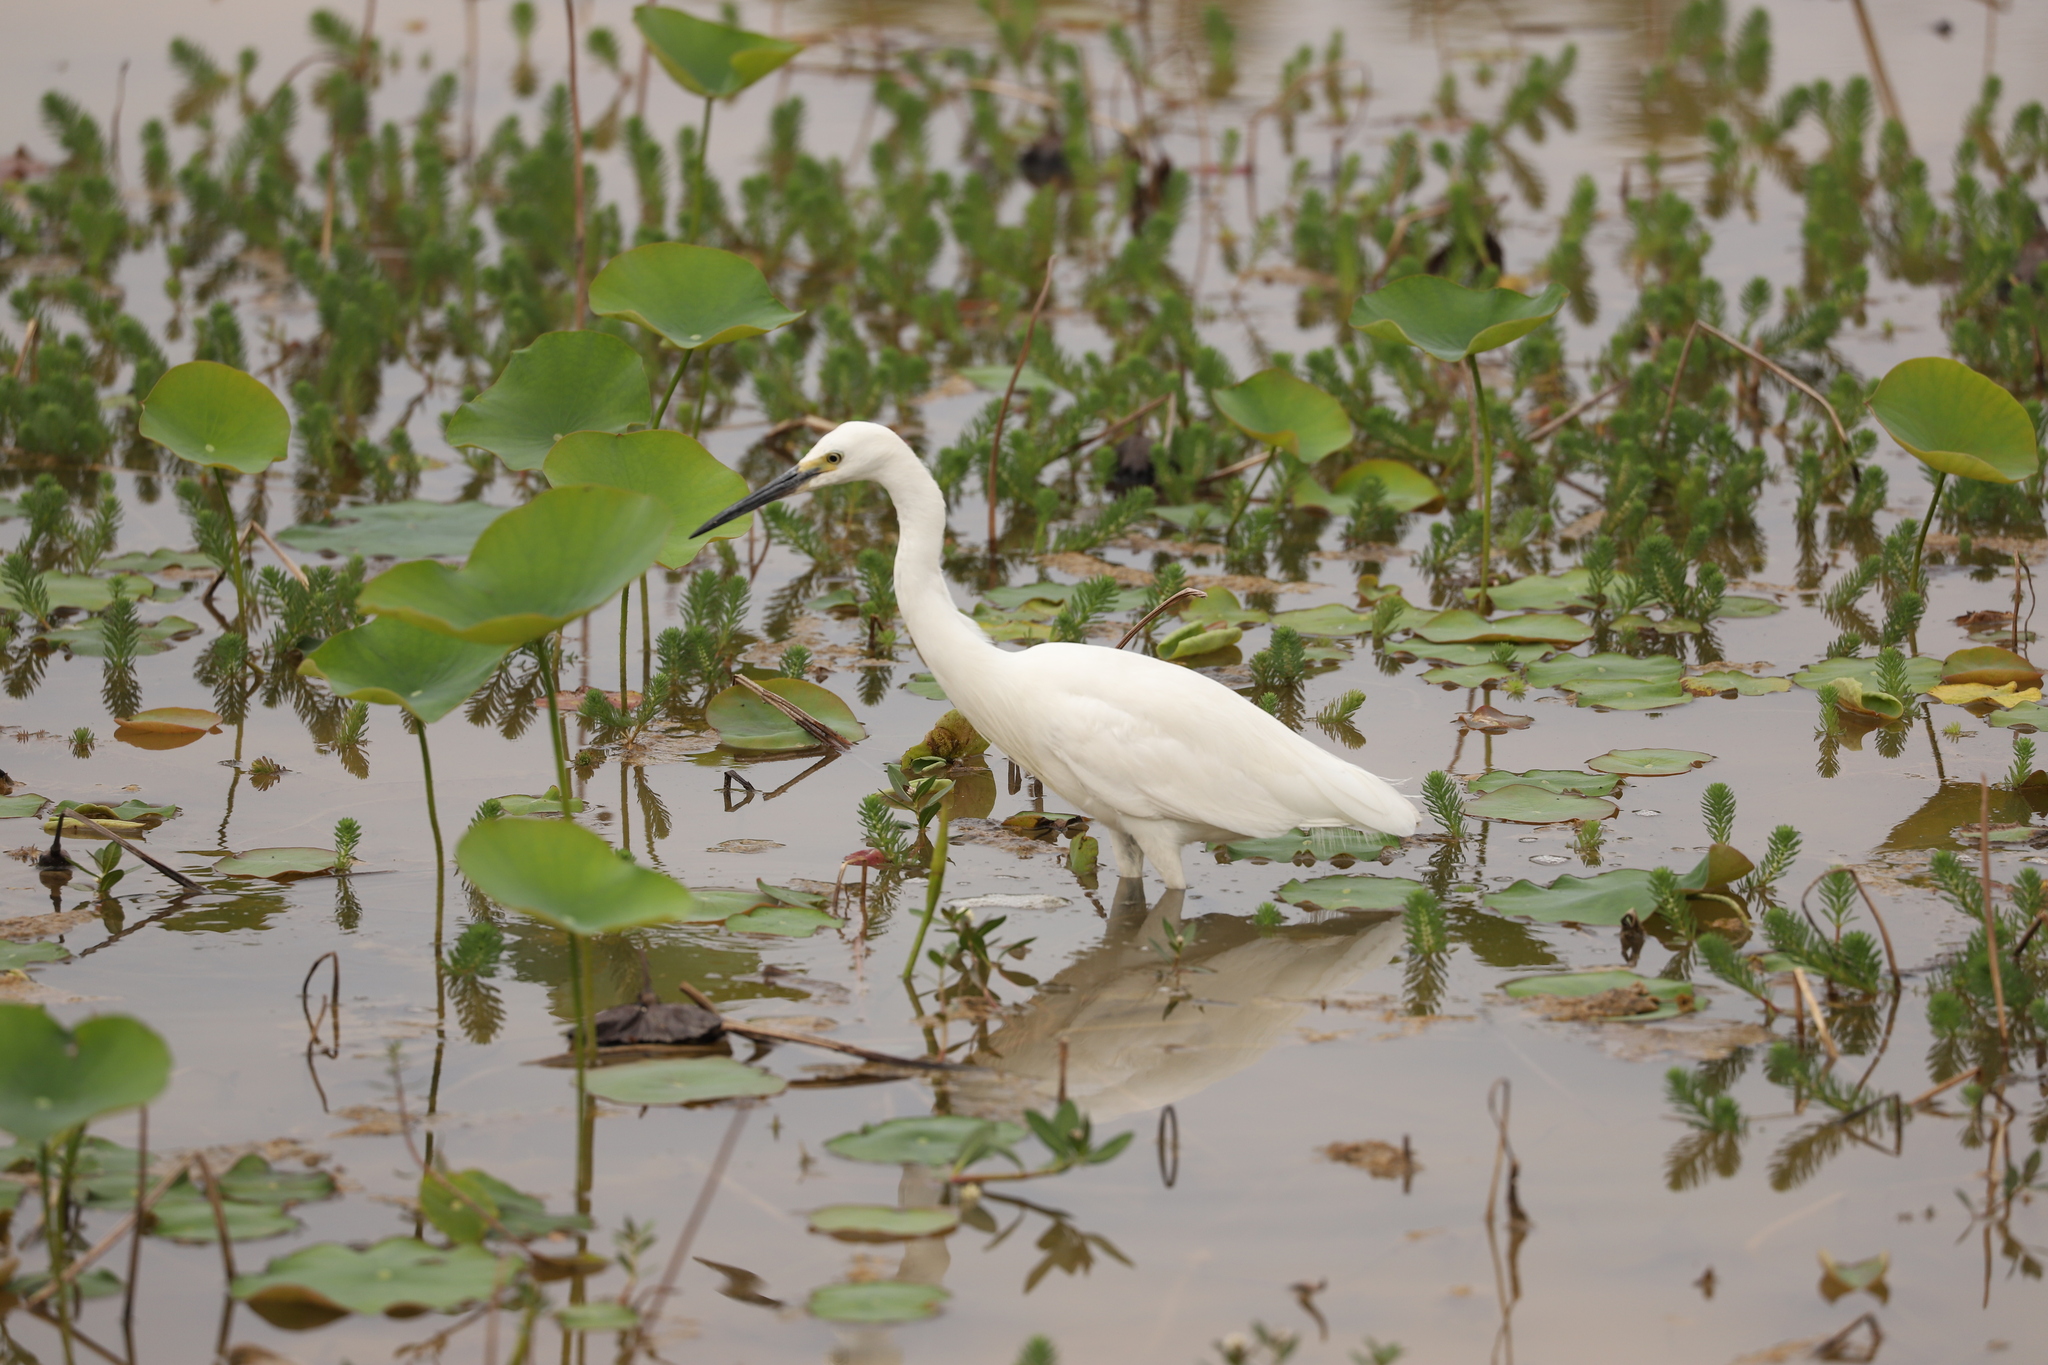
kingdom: Animalia
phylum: Chordata
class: Aves
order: Pelecaniformes
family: Ardeidae
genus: Egretta
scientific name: Egretta garzetta
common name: Little egret
